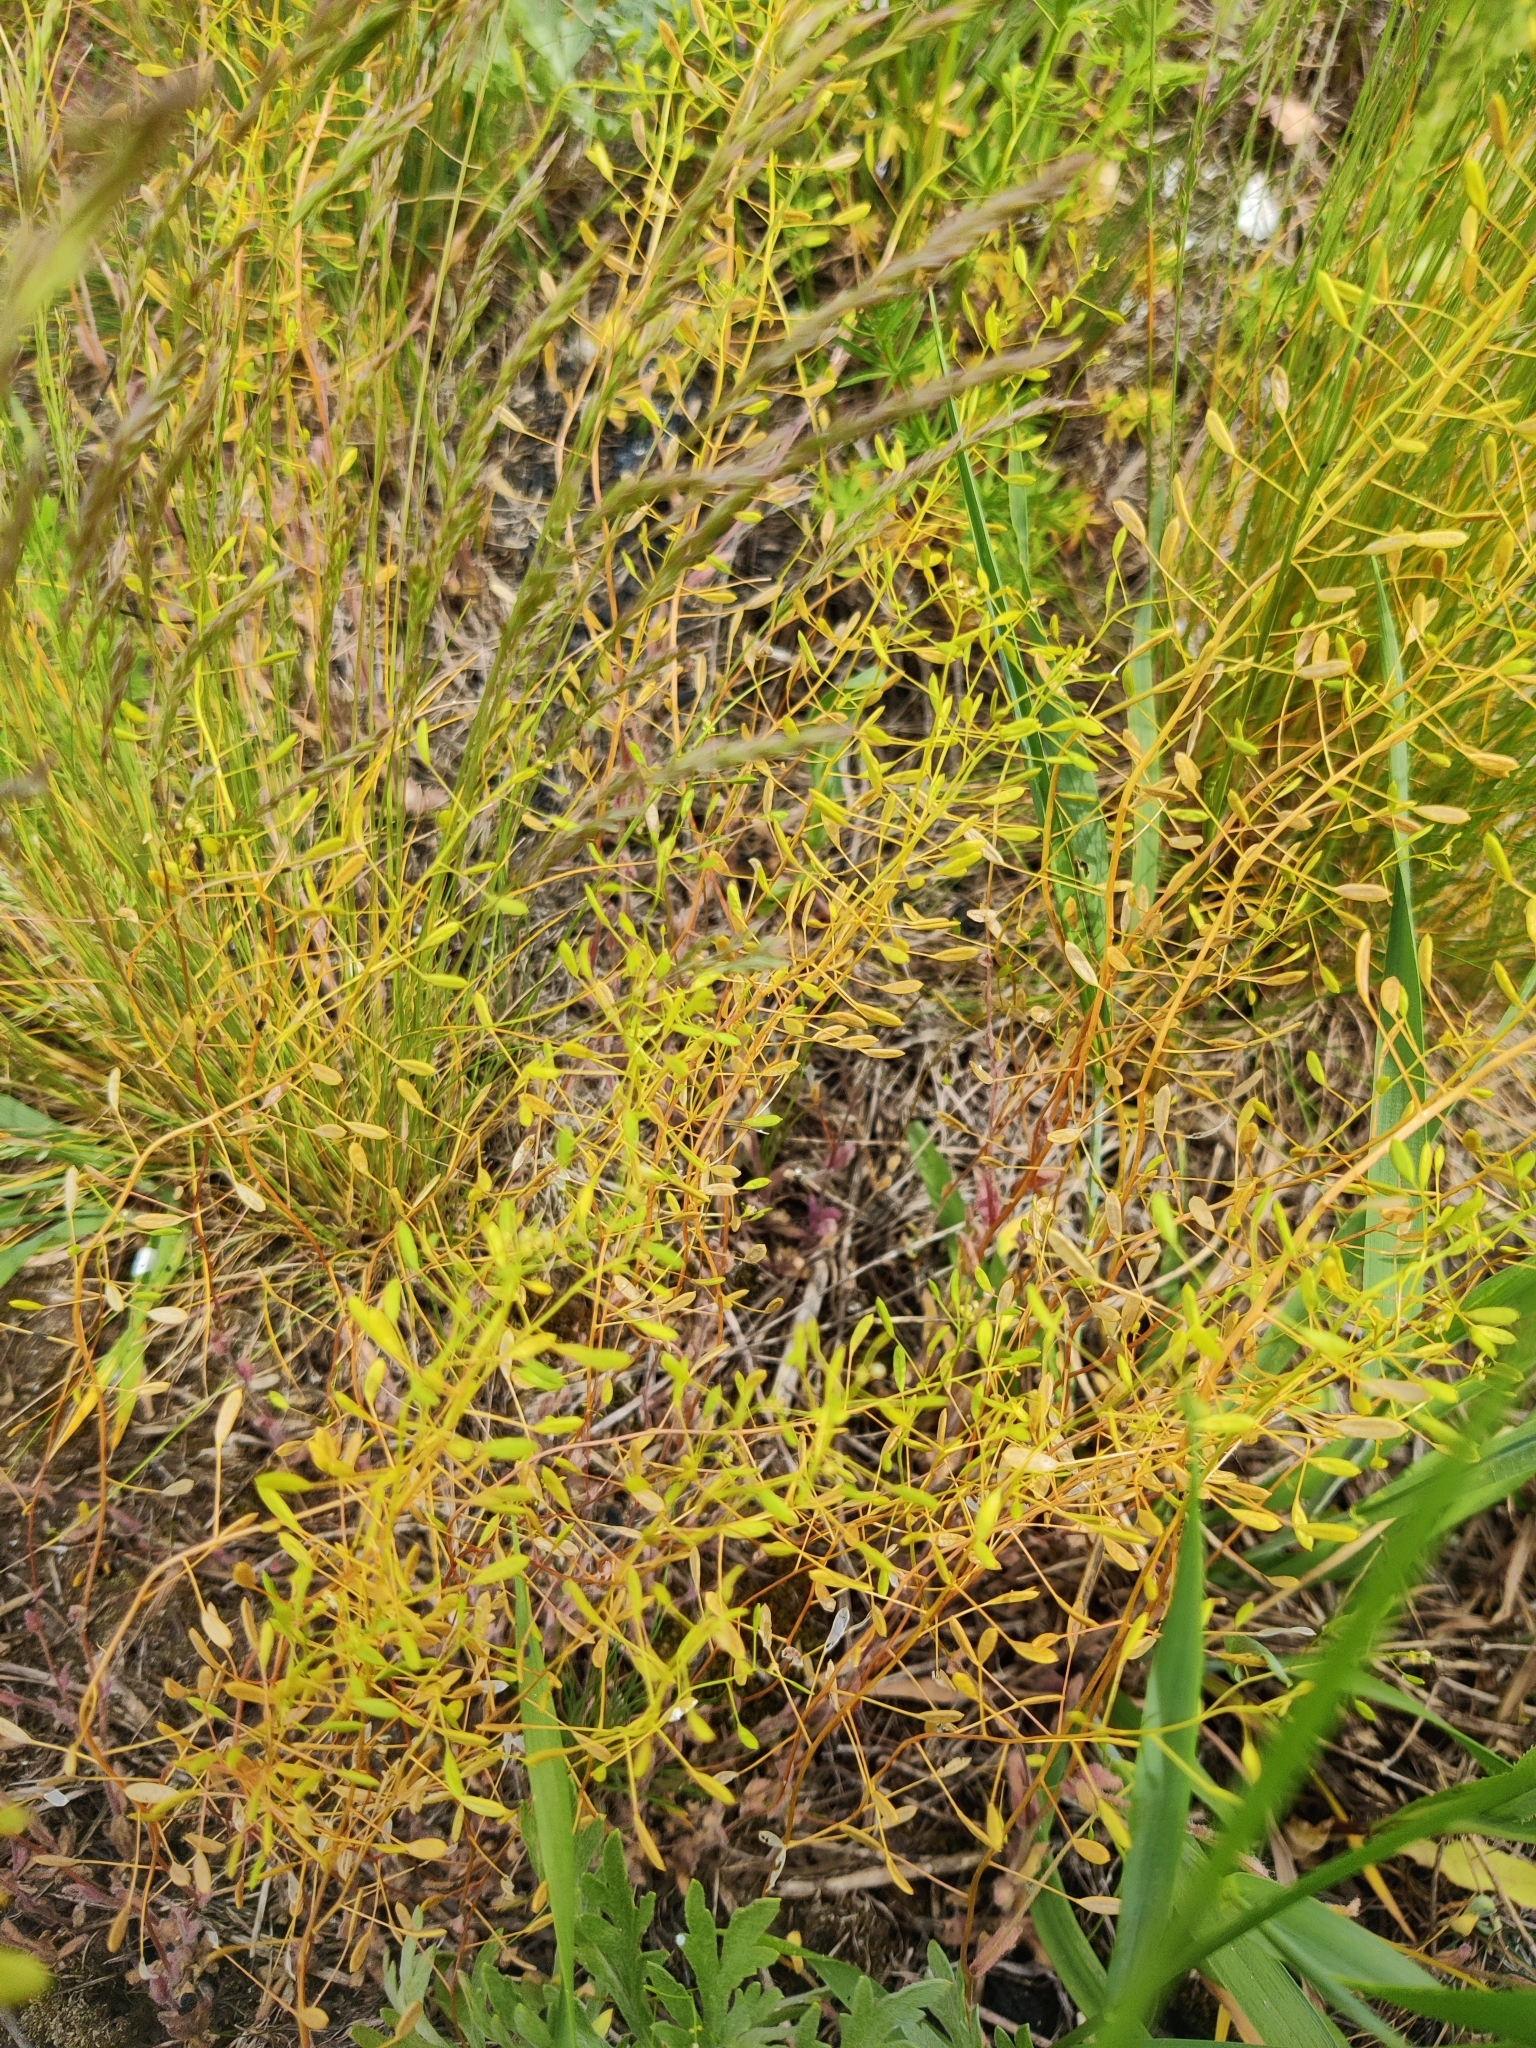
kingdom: Plantae
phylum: Tracheophyta
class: Magnoliopsida
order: Brassicales
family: Brassicaceae
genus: Draba
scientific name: Draba nemorosa
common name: Wood whitlow-grass
